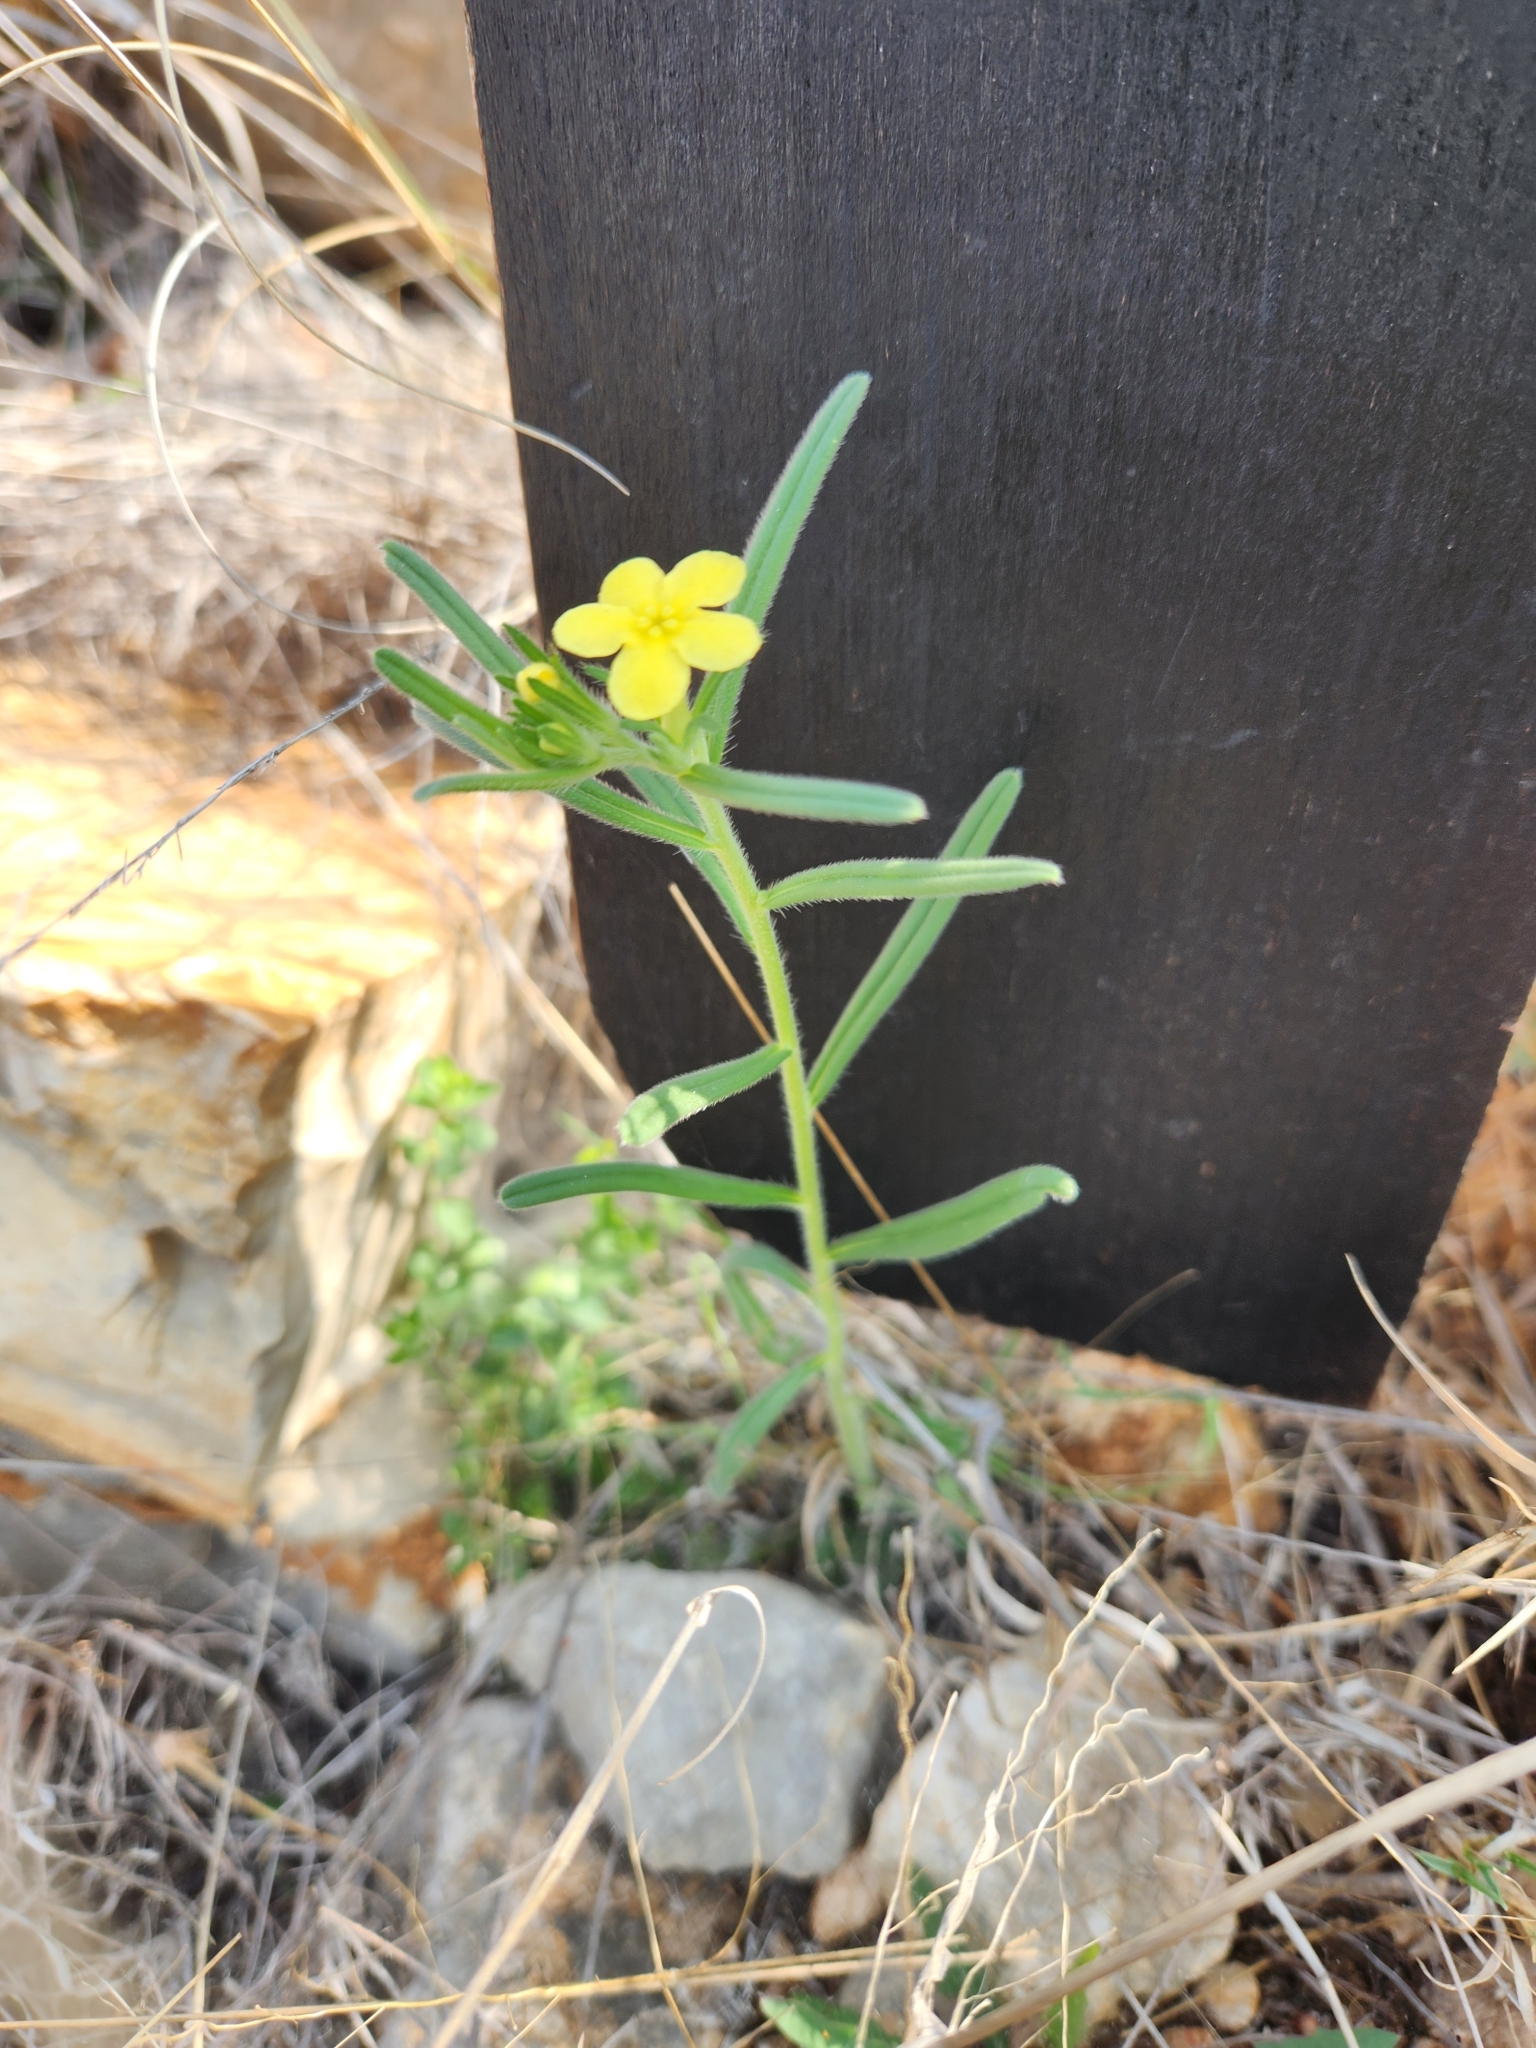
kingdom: Plantae
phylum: Tracheophyta
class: Magnoliopsida
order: Boraginales
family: Boraginaceae
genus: Lithospermum
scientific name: Lithospermum mirabile
